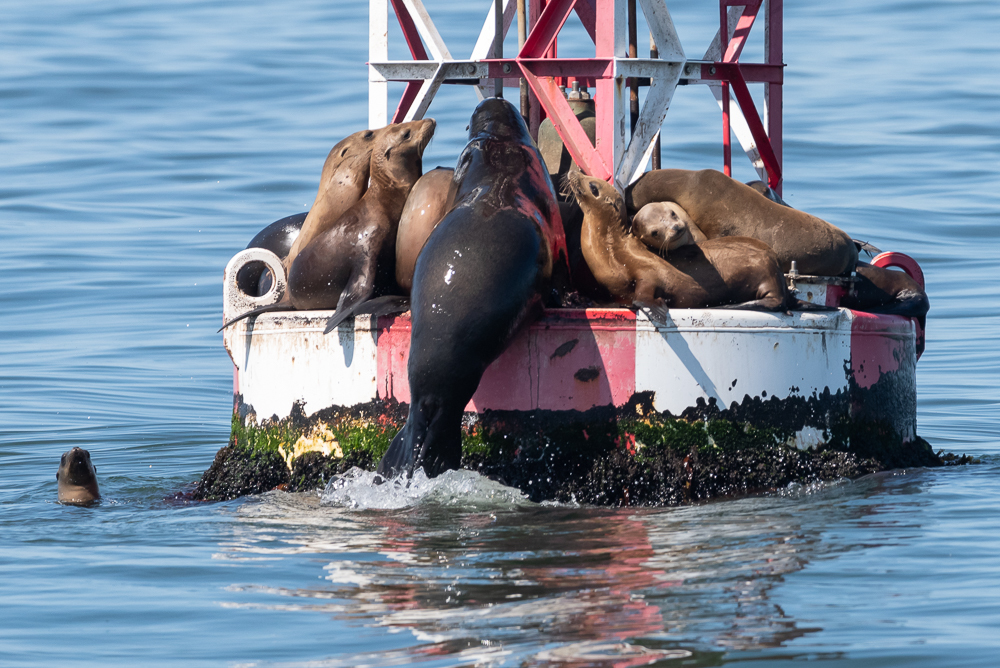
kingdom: Animalia
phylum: Chordata
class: Mammalia
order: Carnivora
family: Otariidae
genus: Zalophus
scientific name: Zalophus californianus
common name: California sea lion
